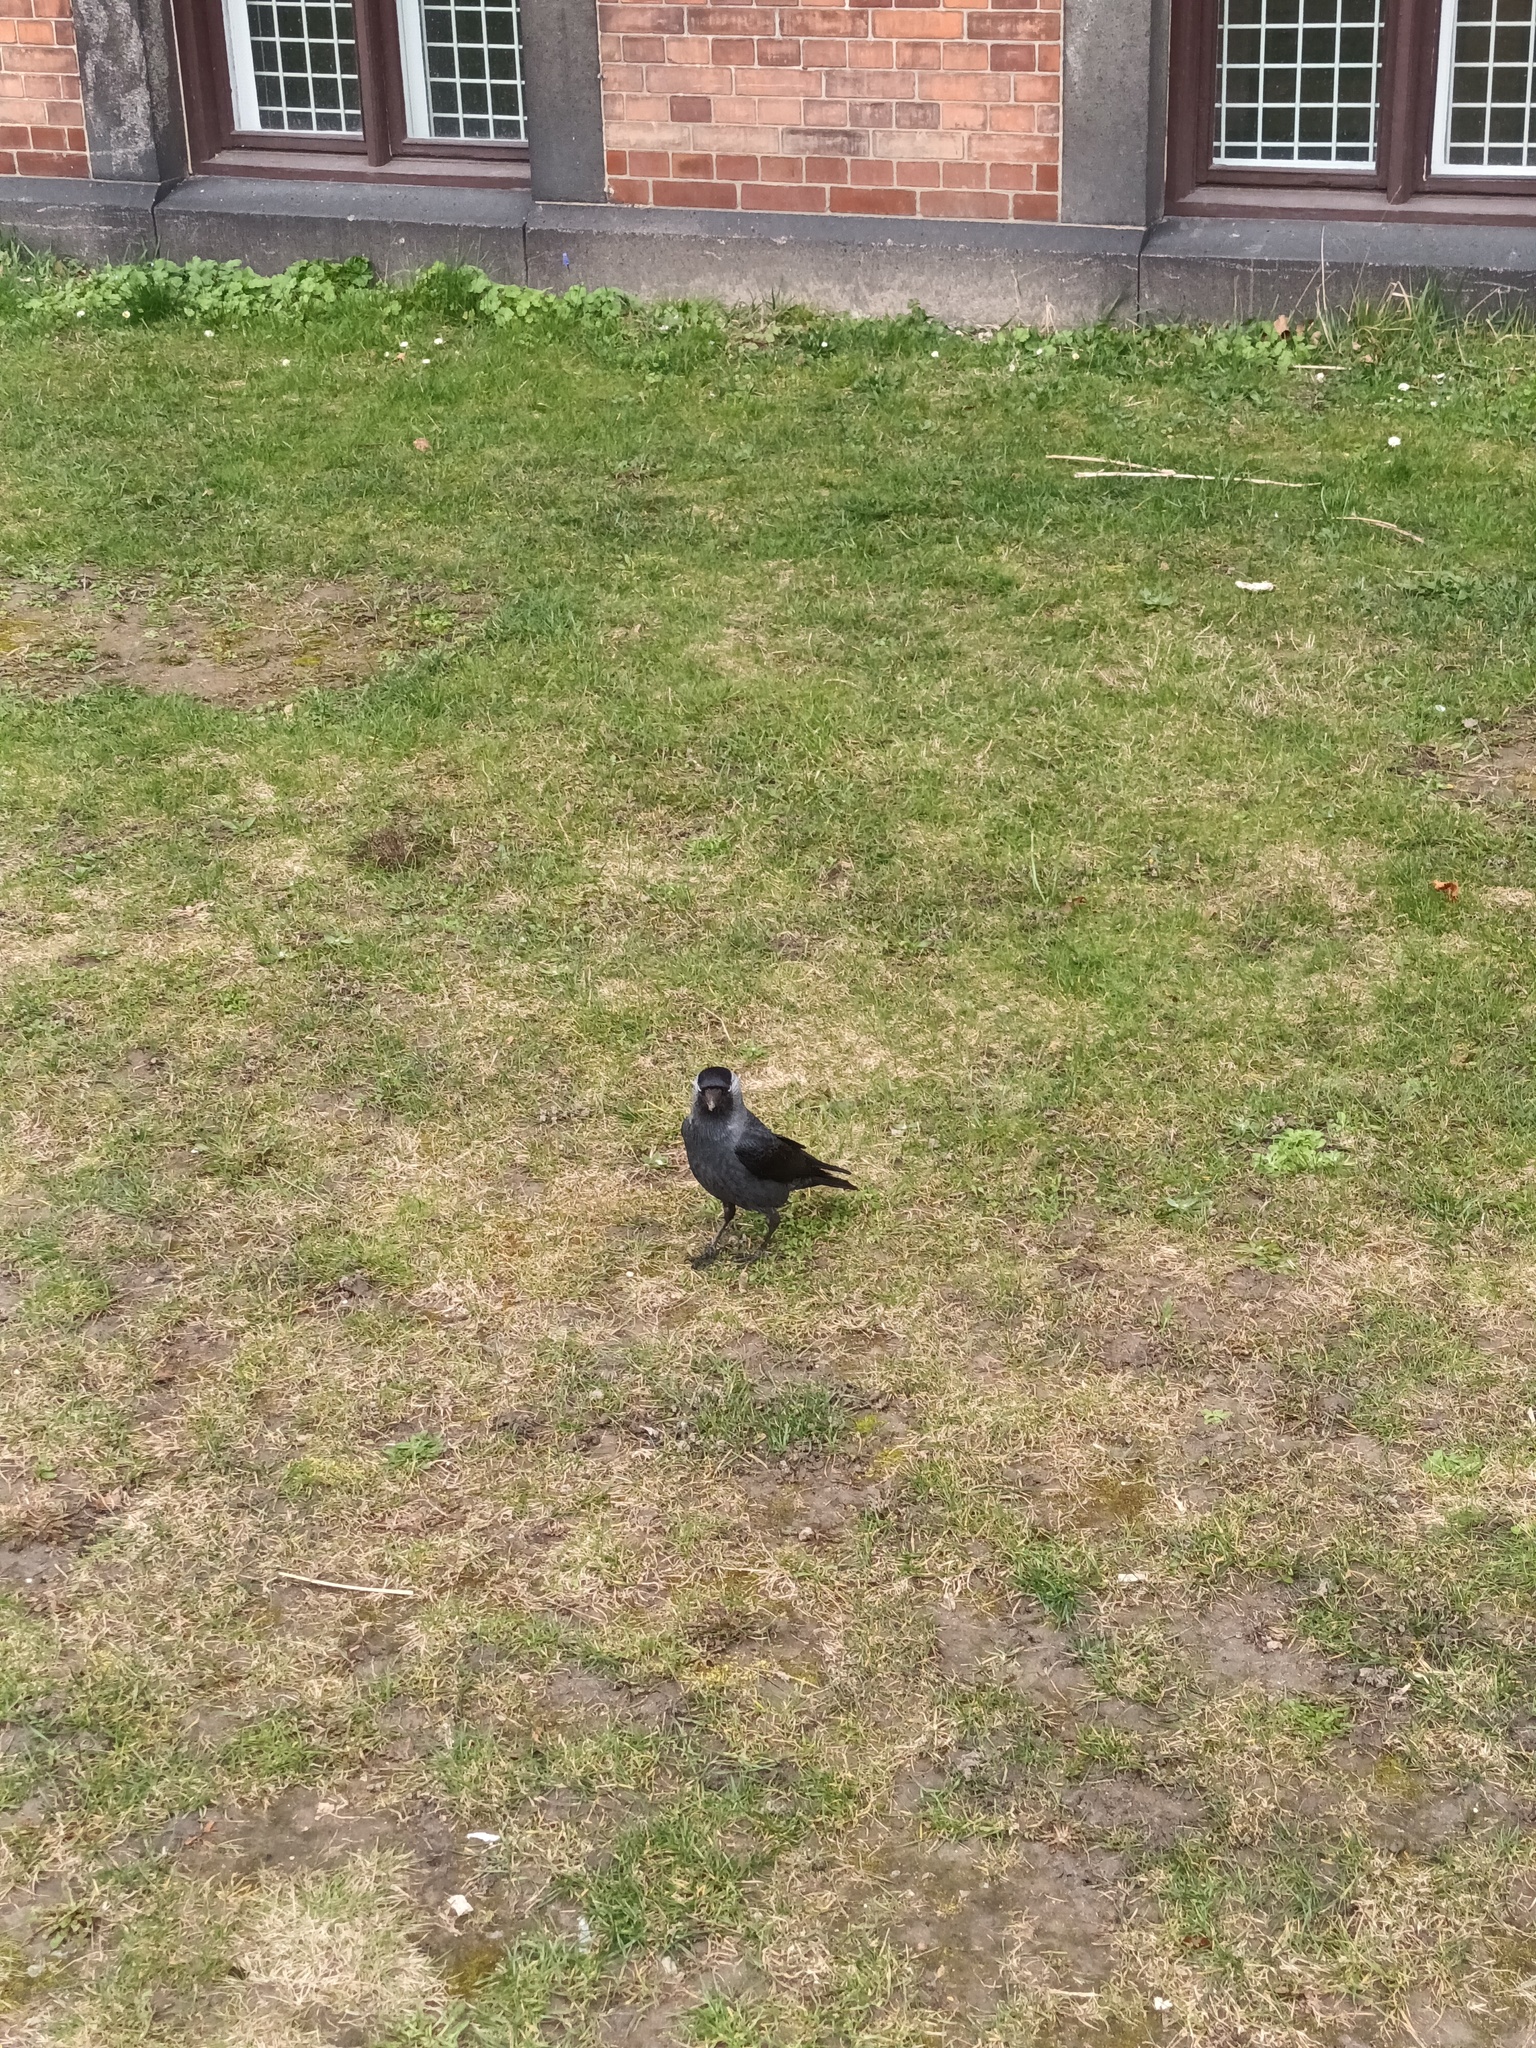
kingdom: Animalia
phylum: Chordata
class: Aves
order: Passeriformes
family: Corvidae
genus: Coloeus
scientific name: Coloeus monedula
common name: Western jackdaw
